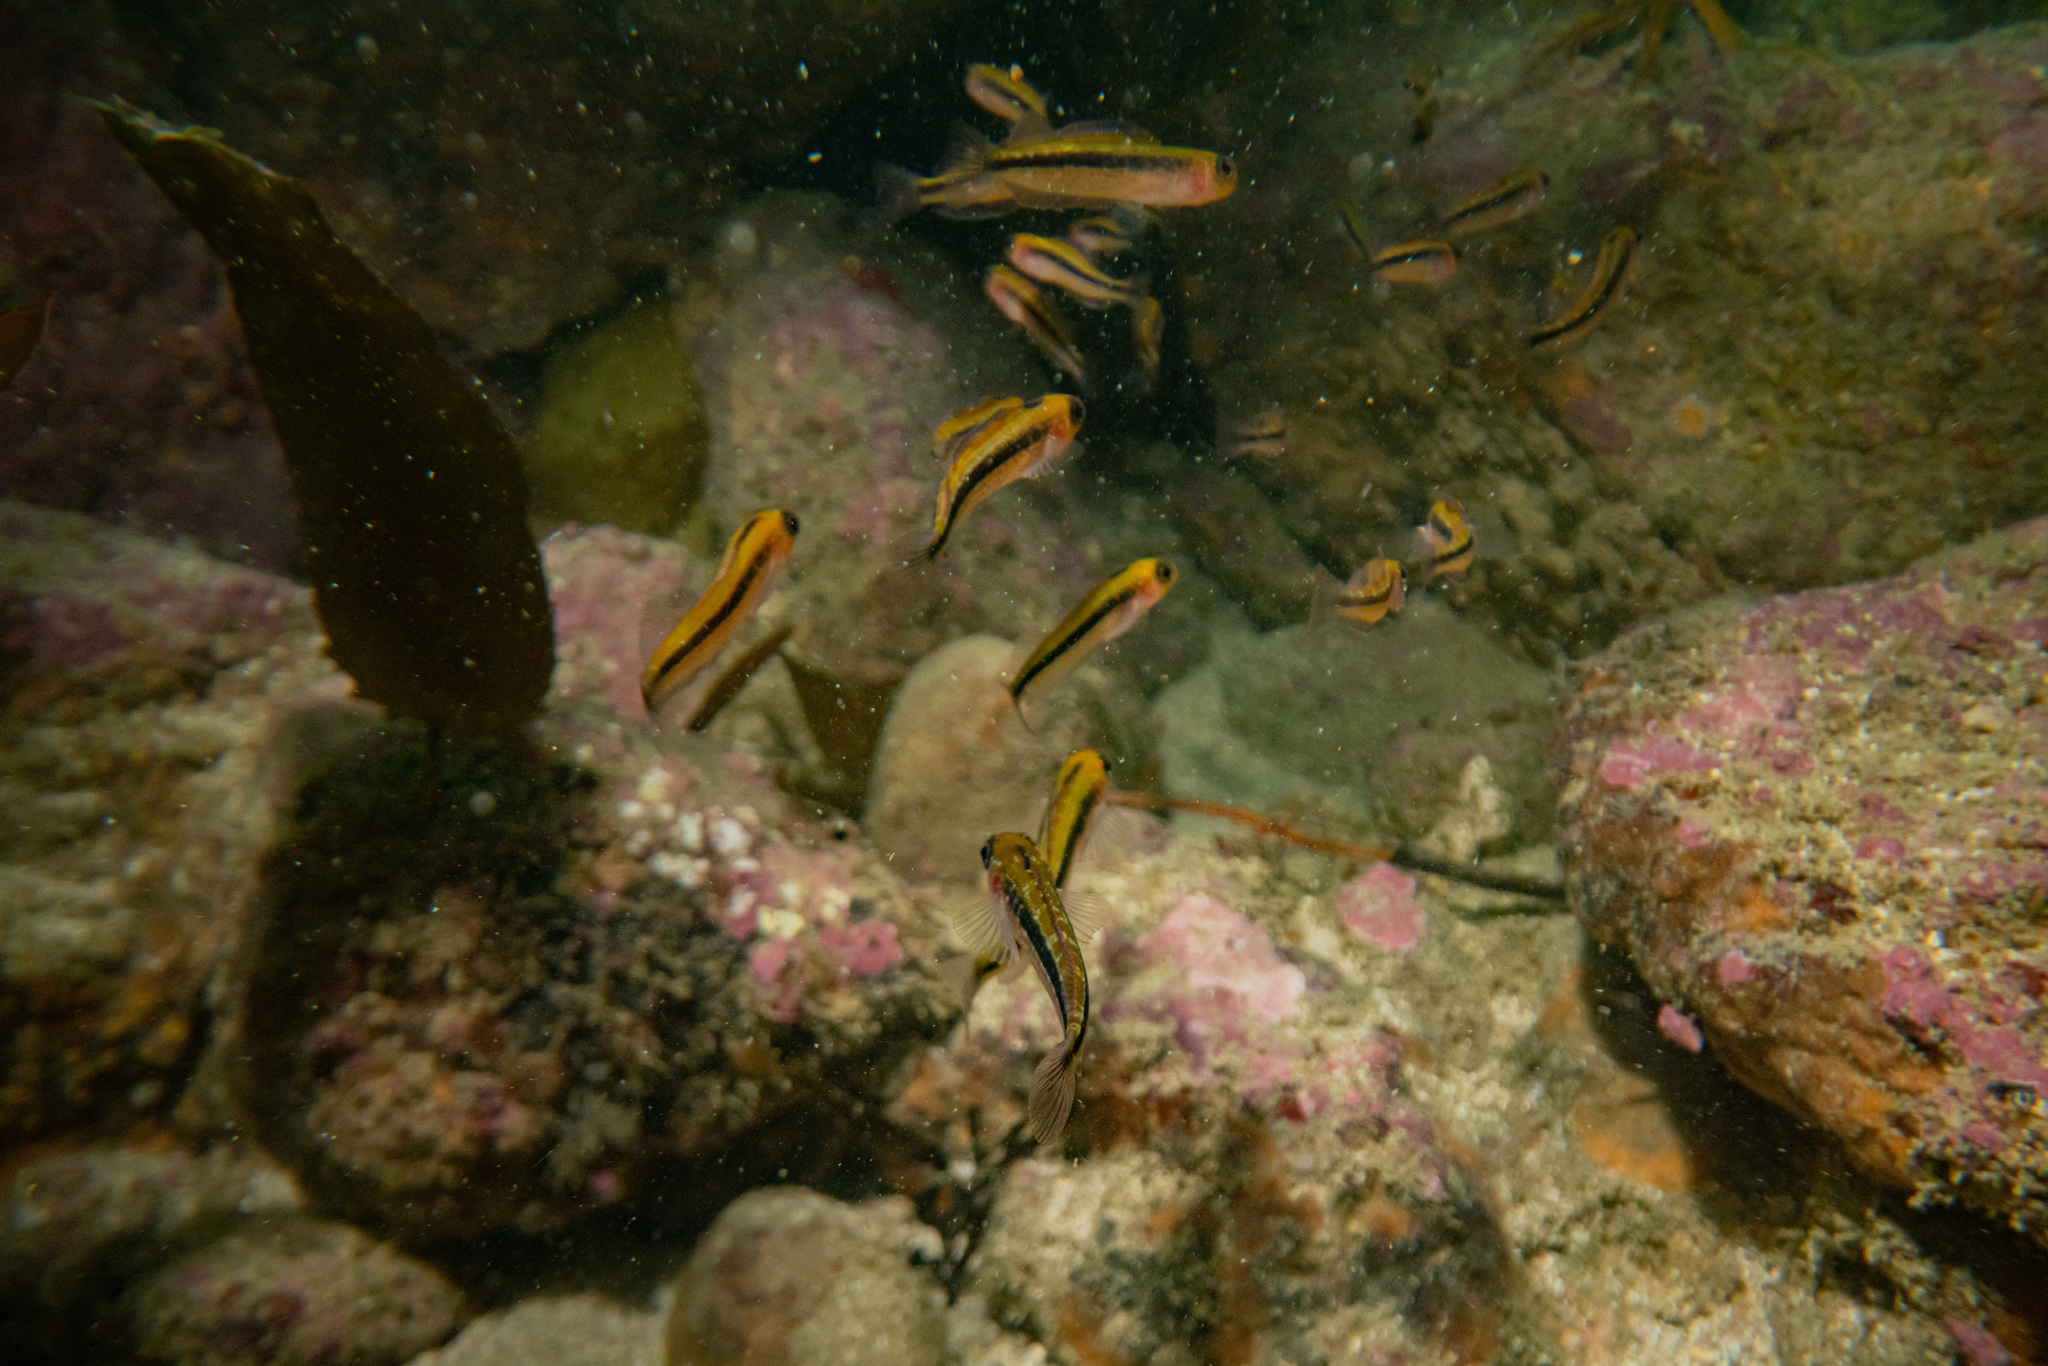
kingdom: Animalia
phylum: Chordata
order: Perciformes
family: Tripterygiidae
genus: Forsterygion
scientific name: Forsterygion maryannae
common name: Oblique-swimming triplefin
